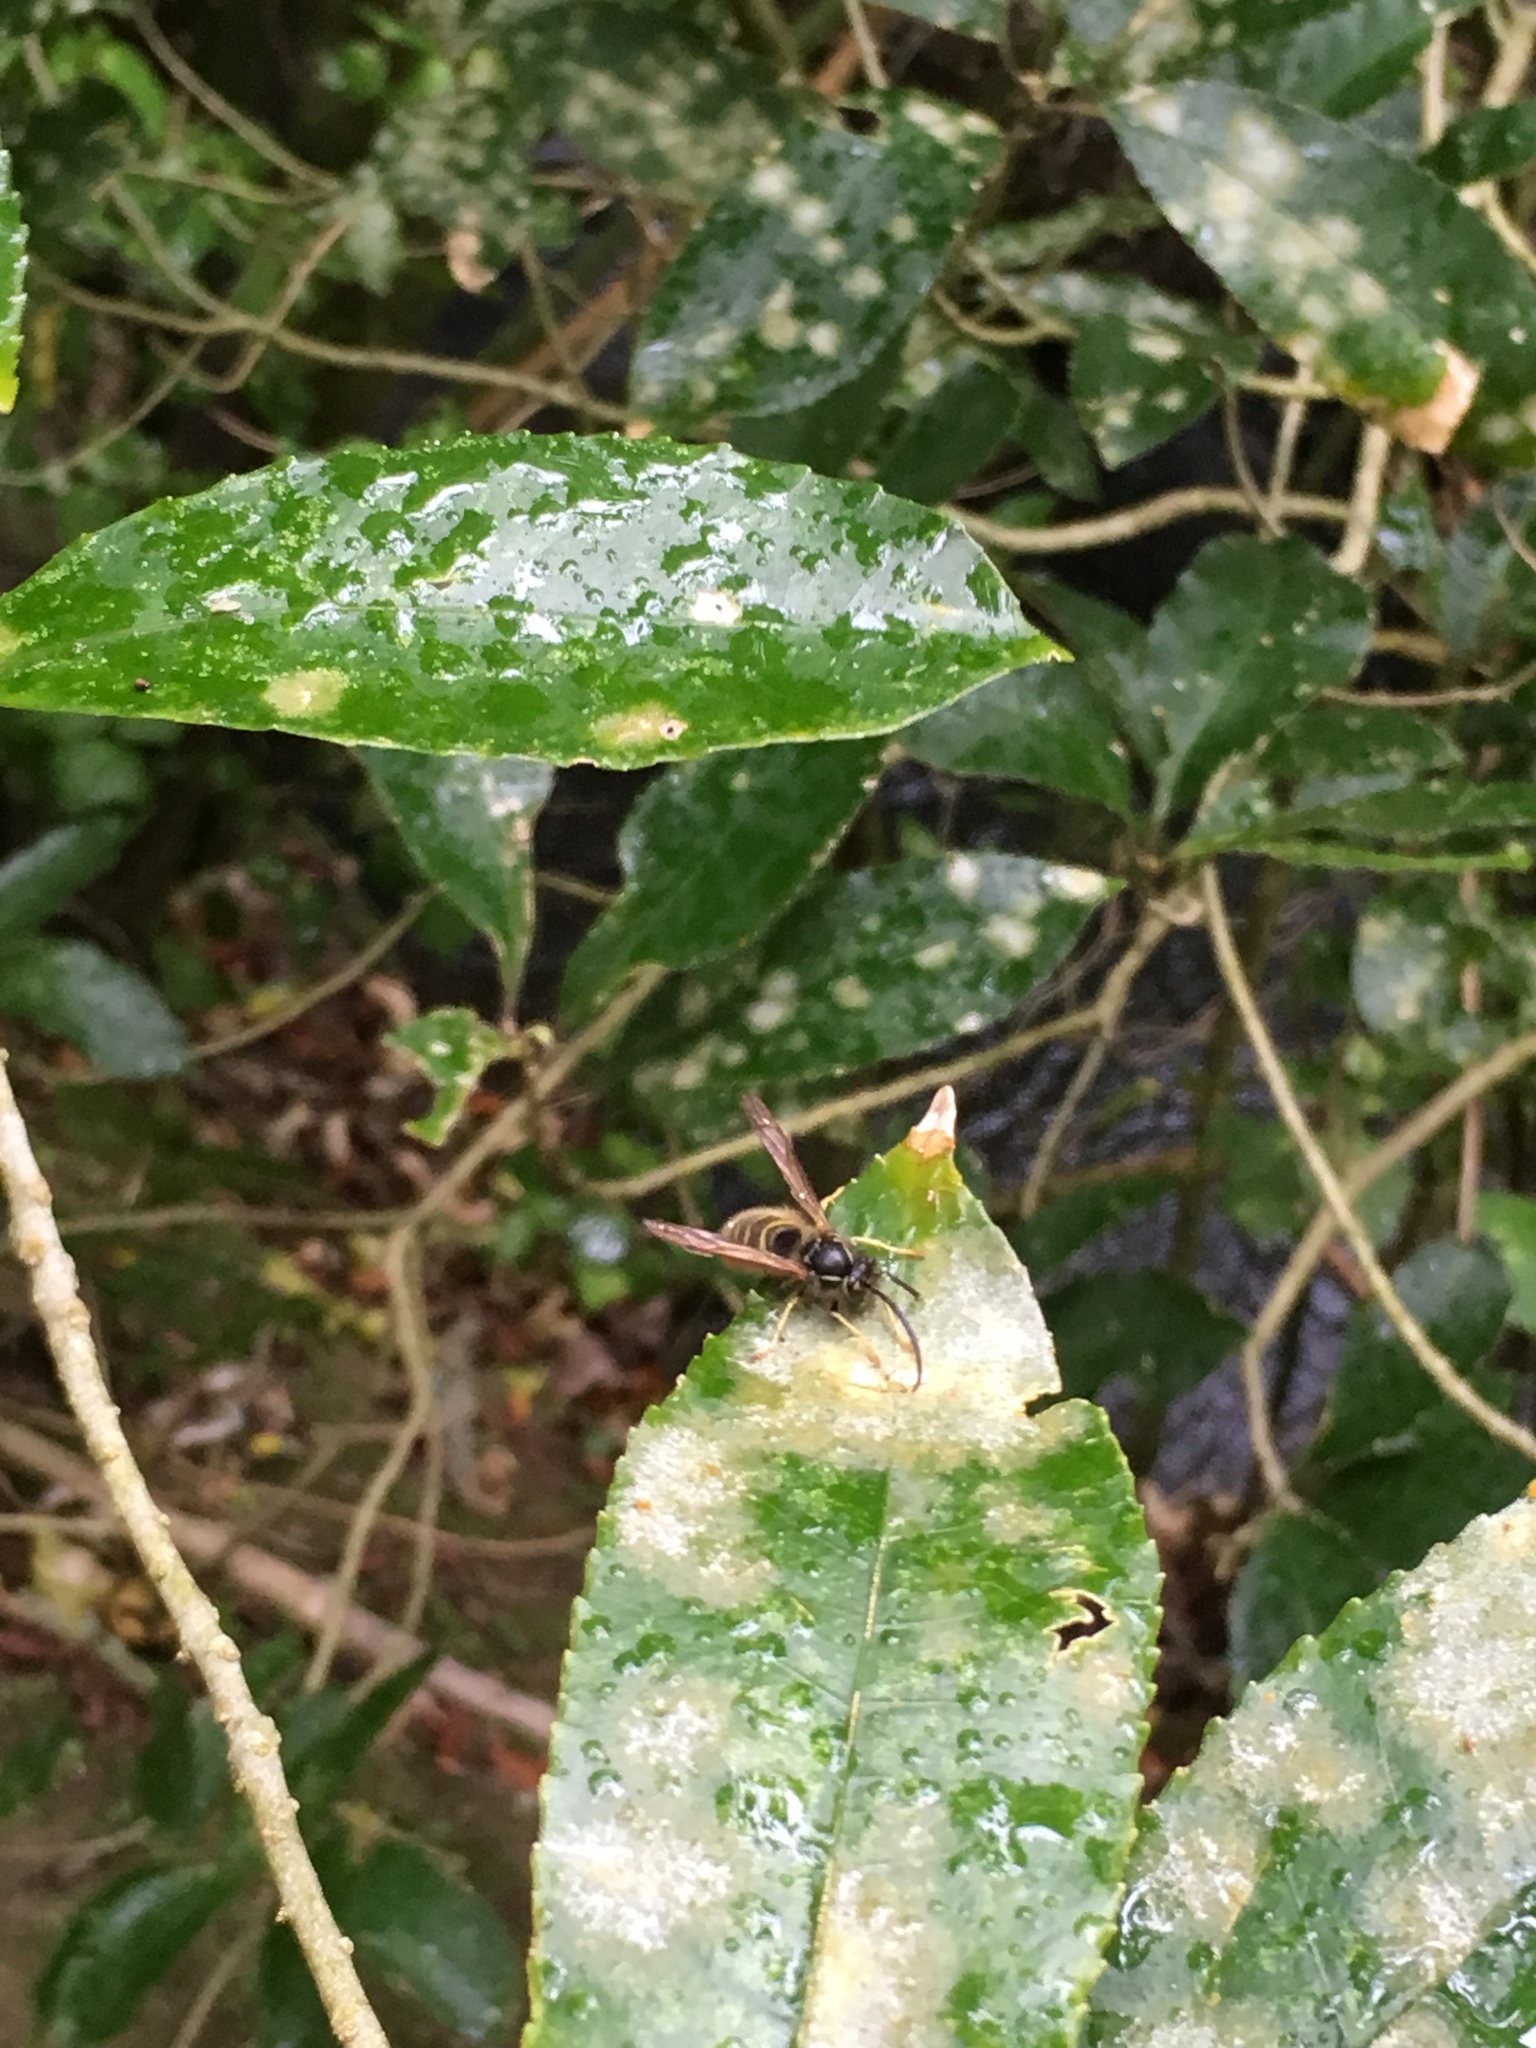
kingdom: Animalia
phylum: Arthropoda
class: Insecta
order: Hymenoptera
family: Vespidae
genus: Vespula
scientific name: Vespula vulgaris
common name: Common wasp
